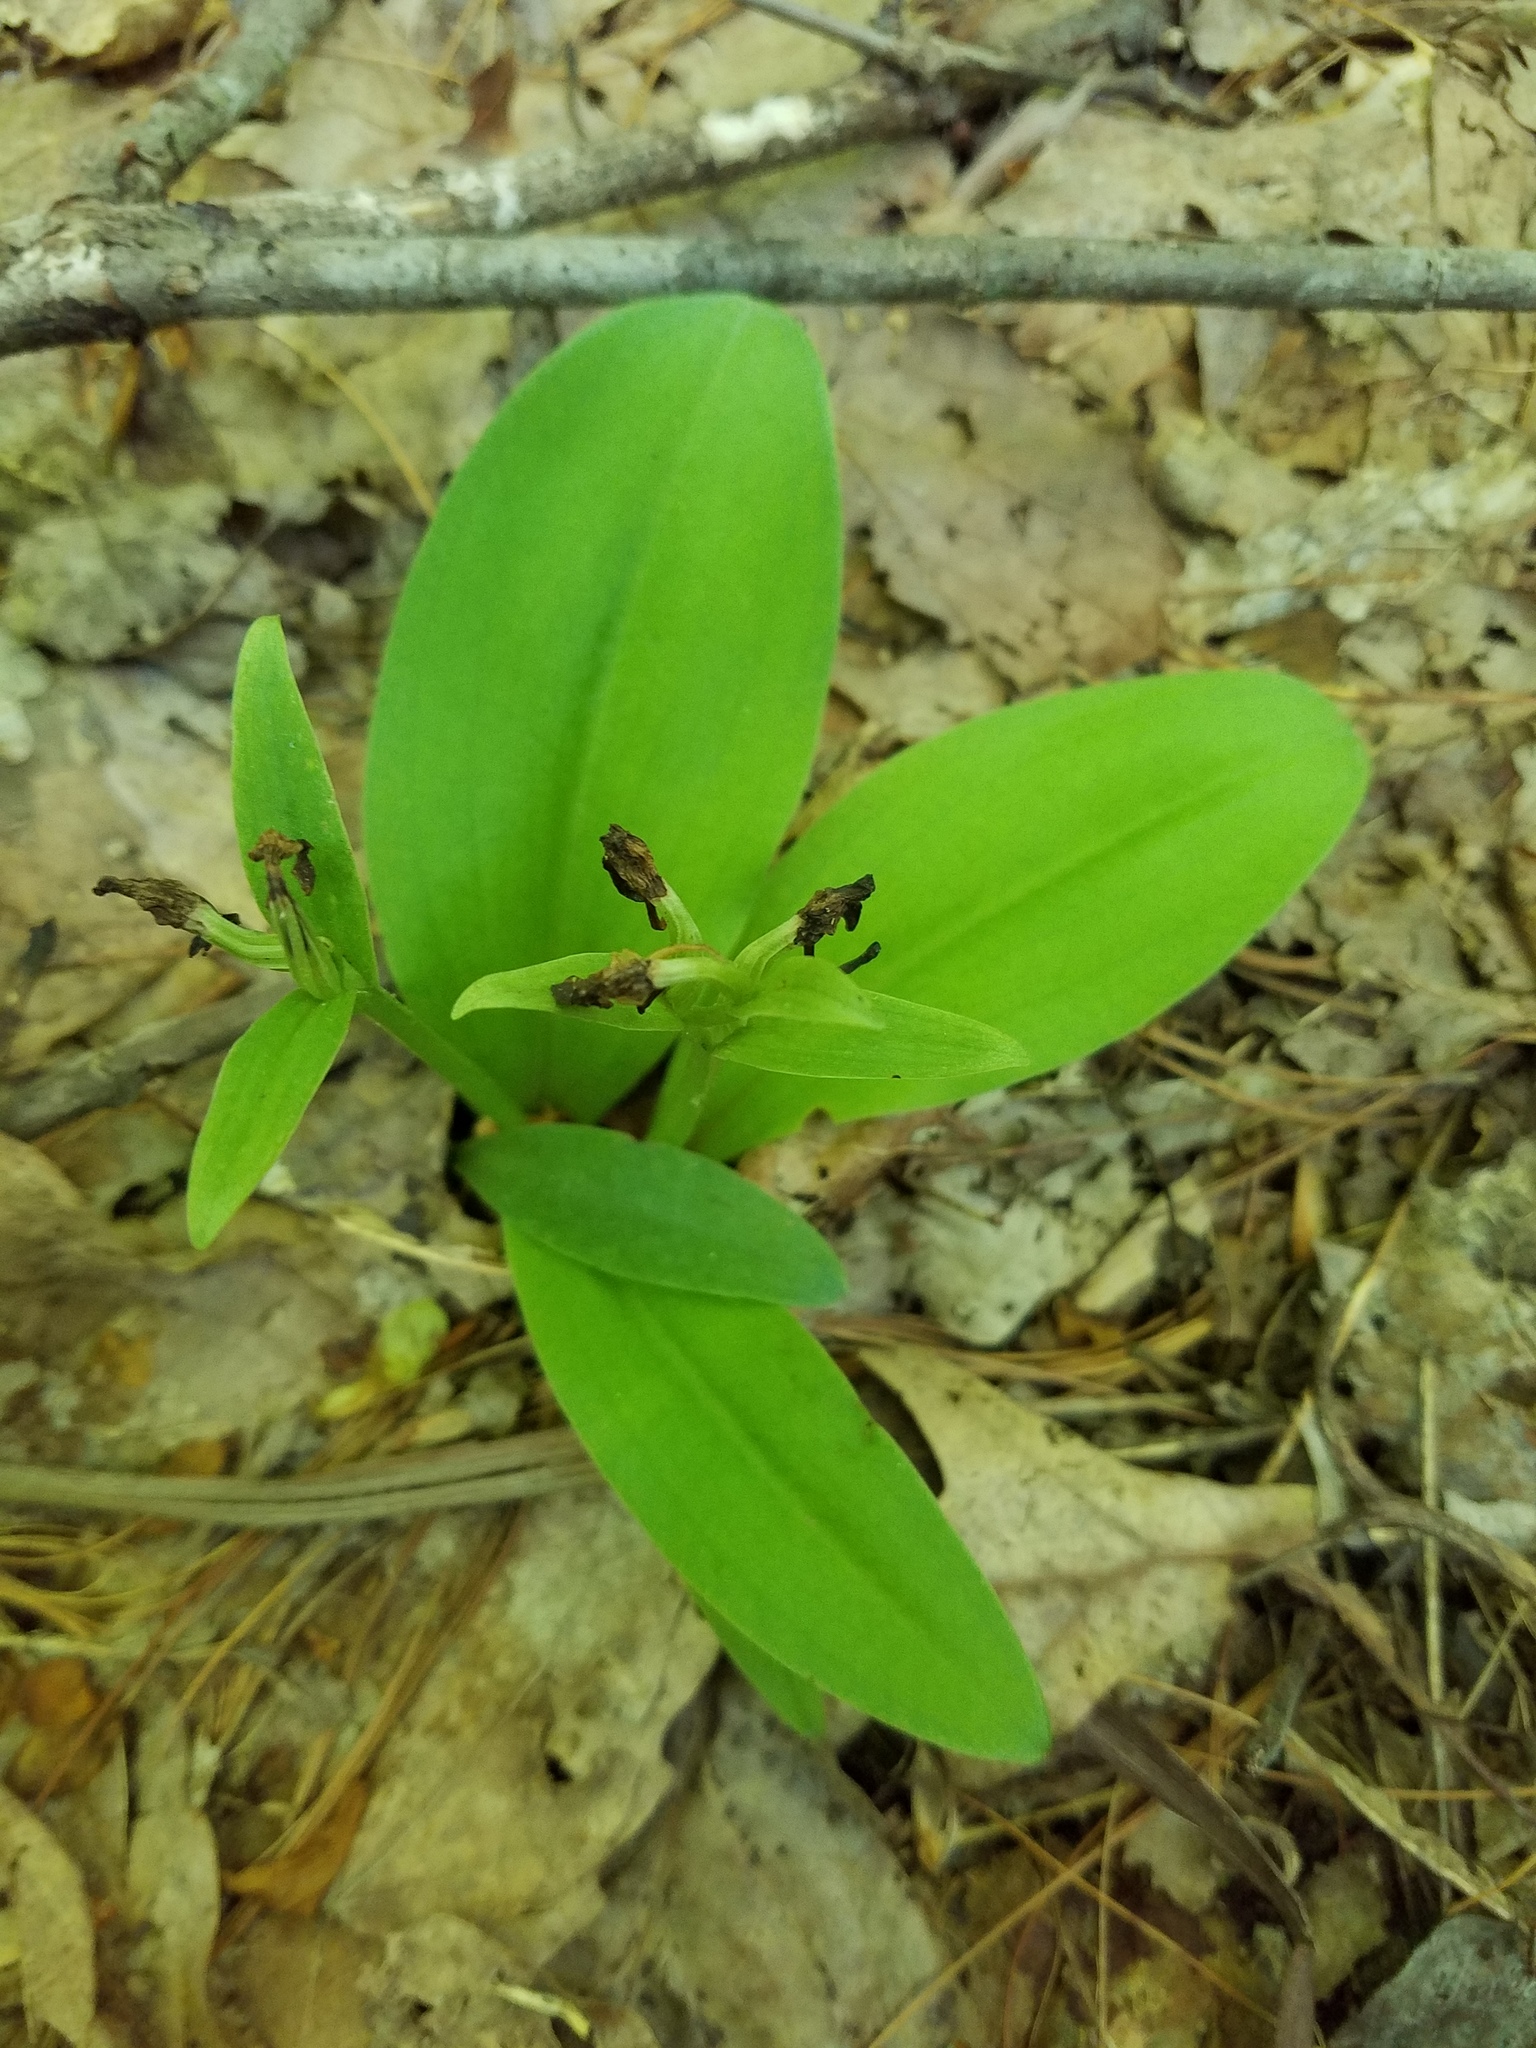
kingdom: Plantae
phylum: Tracheophyta
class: Liliopsida
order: Asparagales
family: Orchidaceae
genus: Galearis
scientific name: Galearis spectabilis
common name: Purple-hooded orchis
